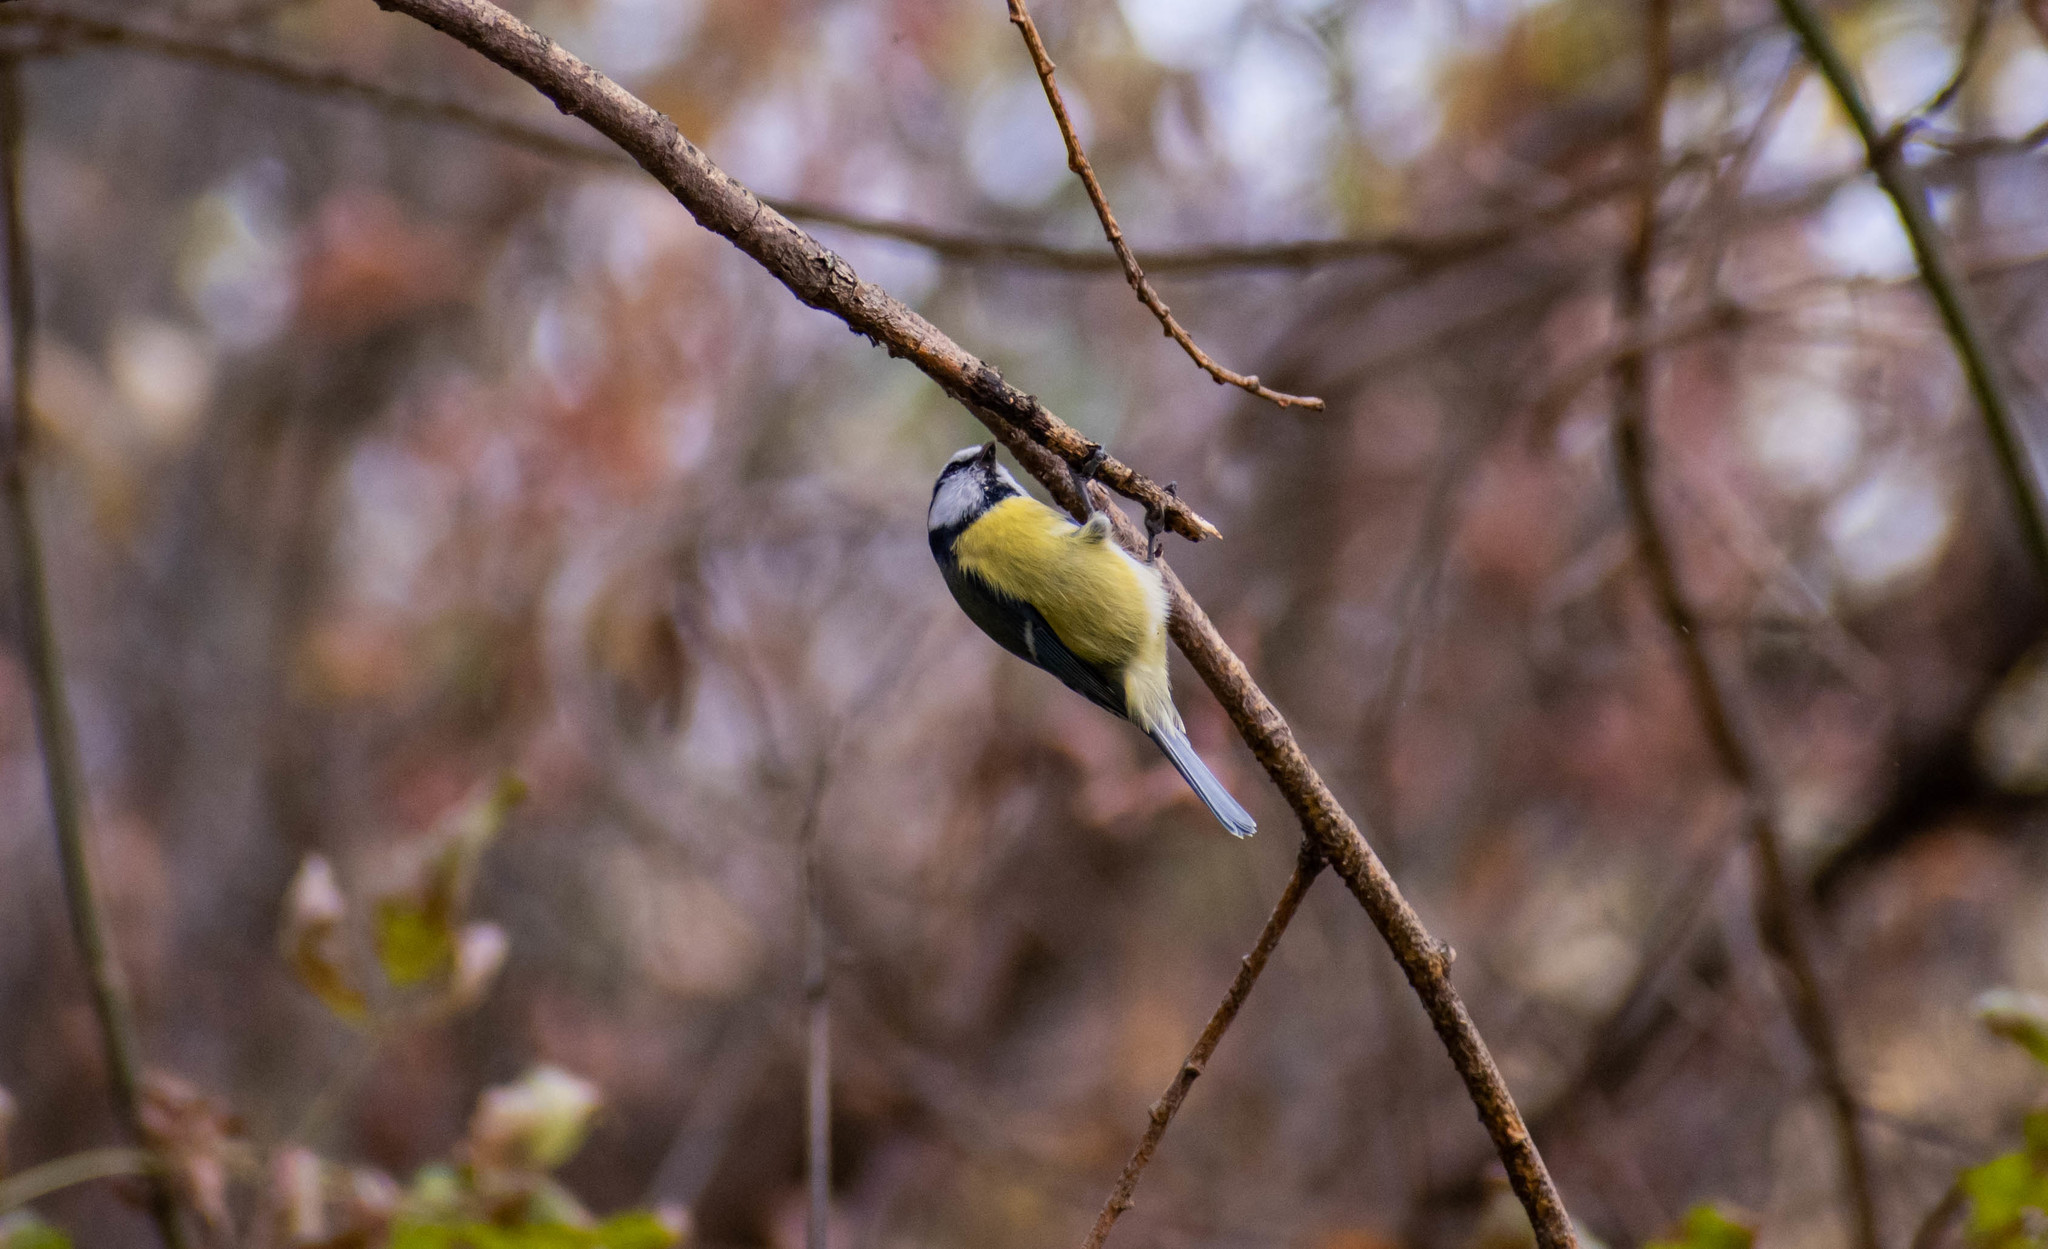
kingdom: Animalia
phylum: Chordata
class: Aves
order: Passeriformes
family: Paridae
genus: Cyanistes
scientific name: Cyanistes caeruleus
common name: Eurasian blue tit
